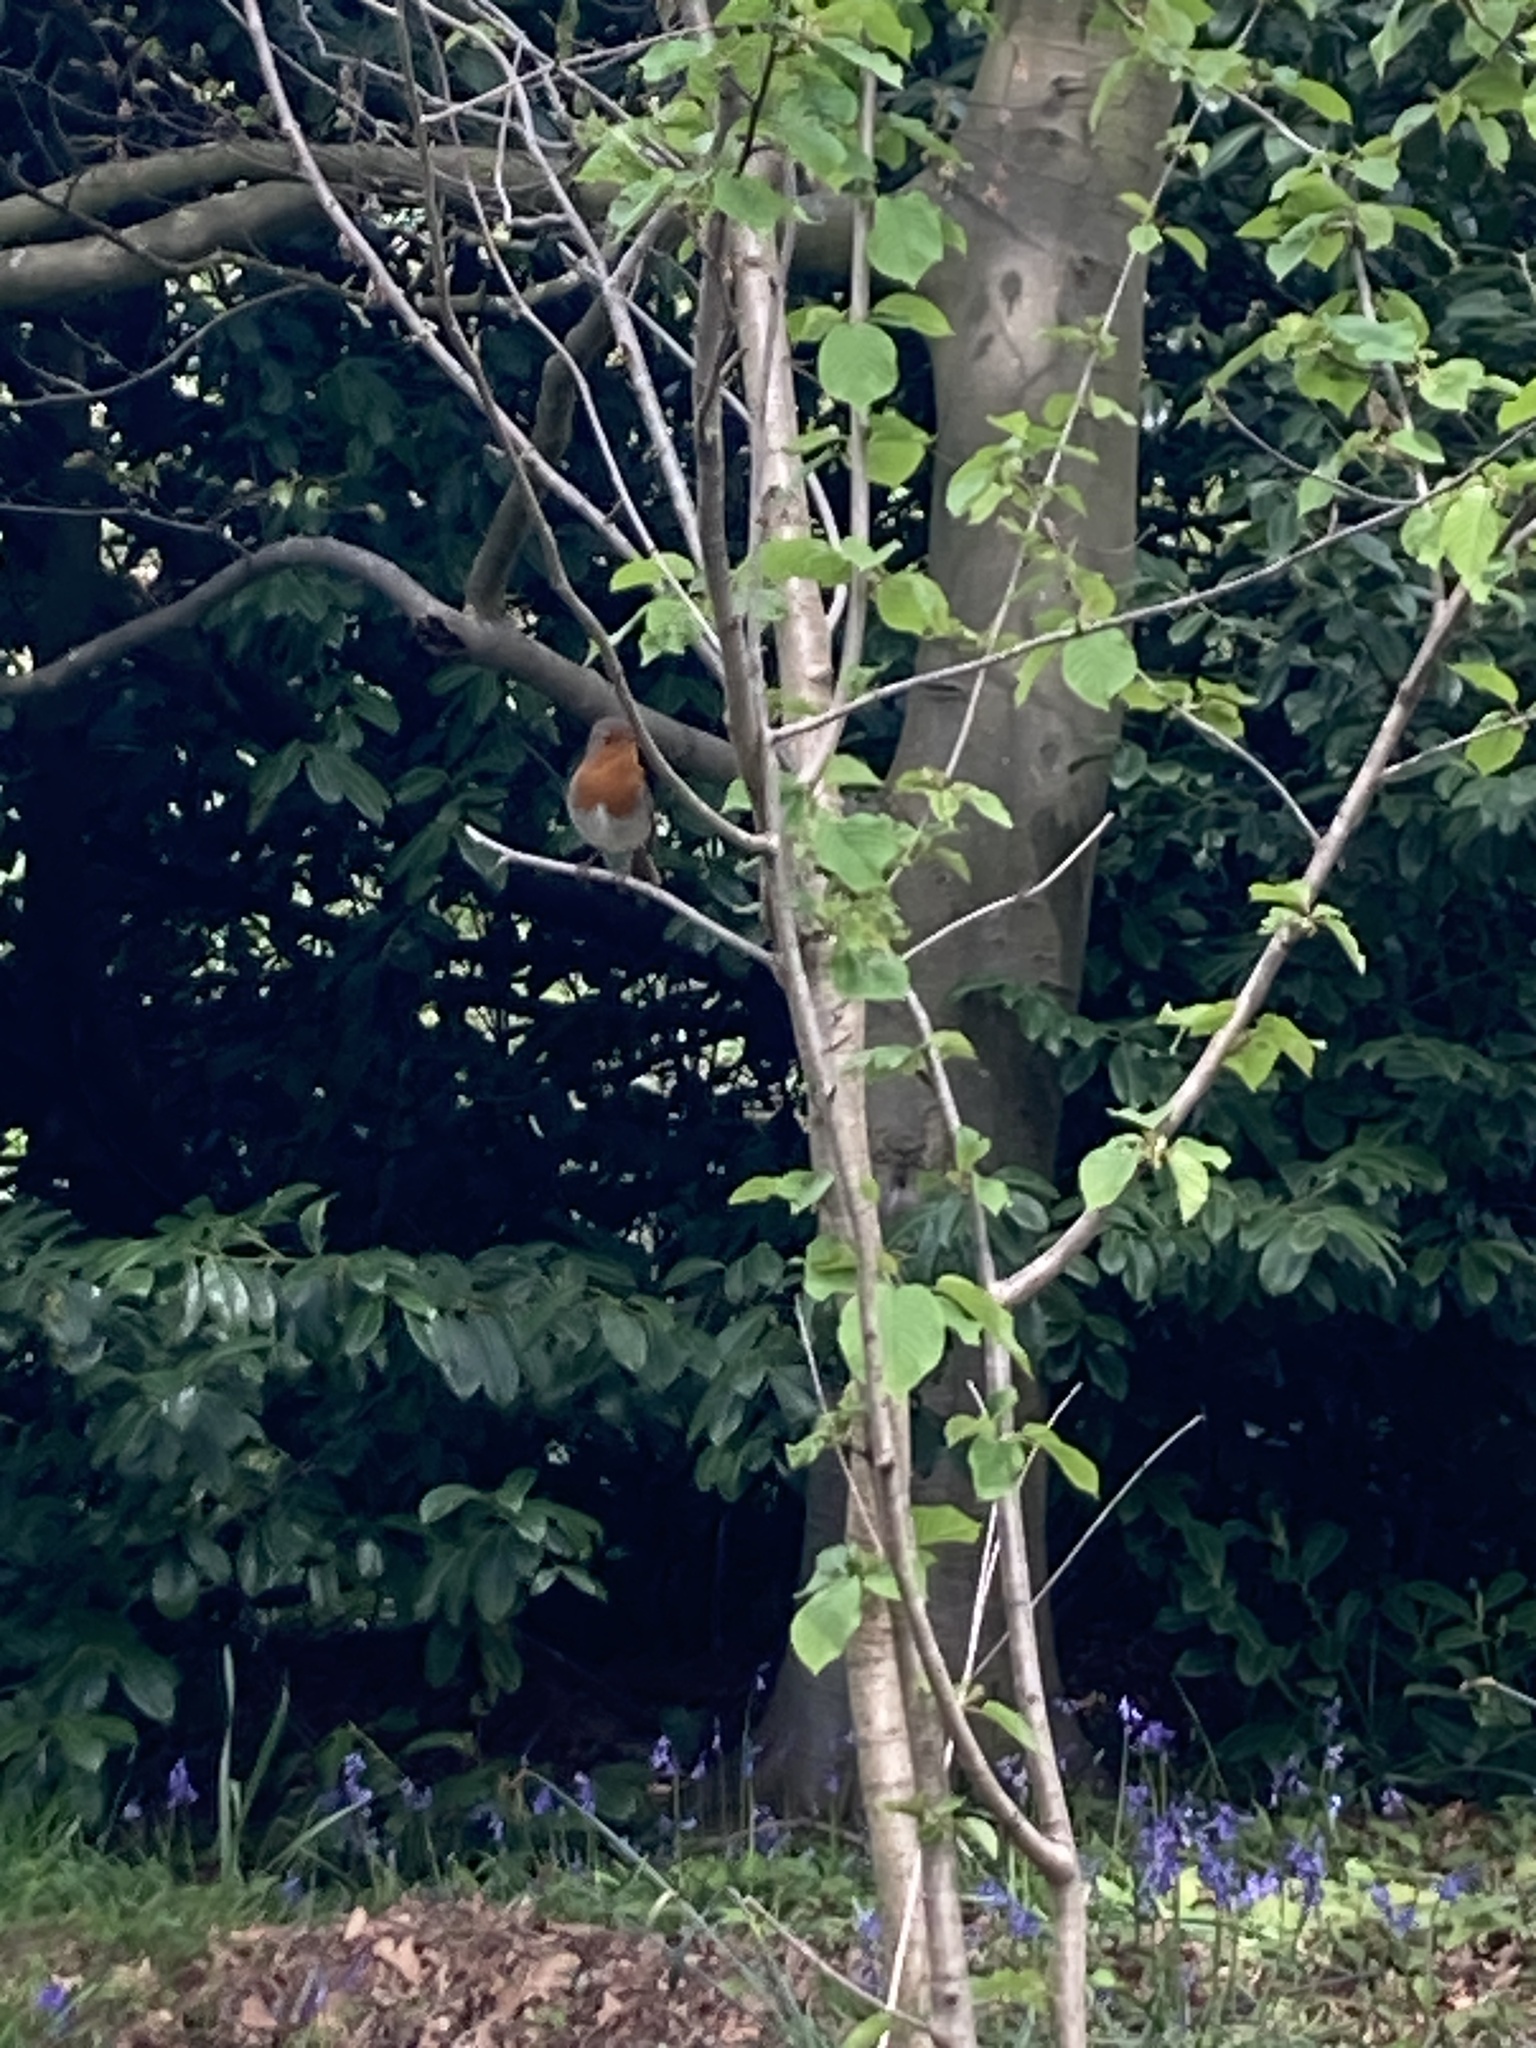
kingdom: Animalia
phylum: Chordata
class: Aves
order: Passeriformes
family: Muscicapidae
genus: Erithacus
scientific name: Erithacus rubecula
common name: European robin
